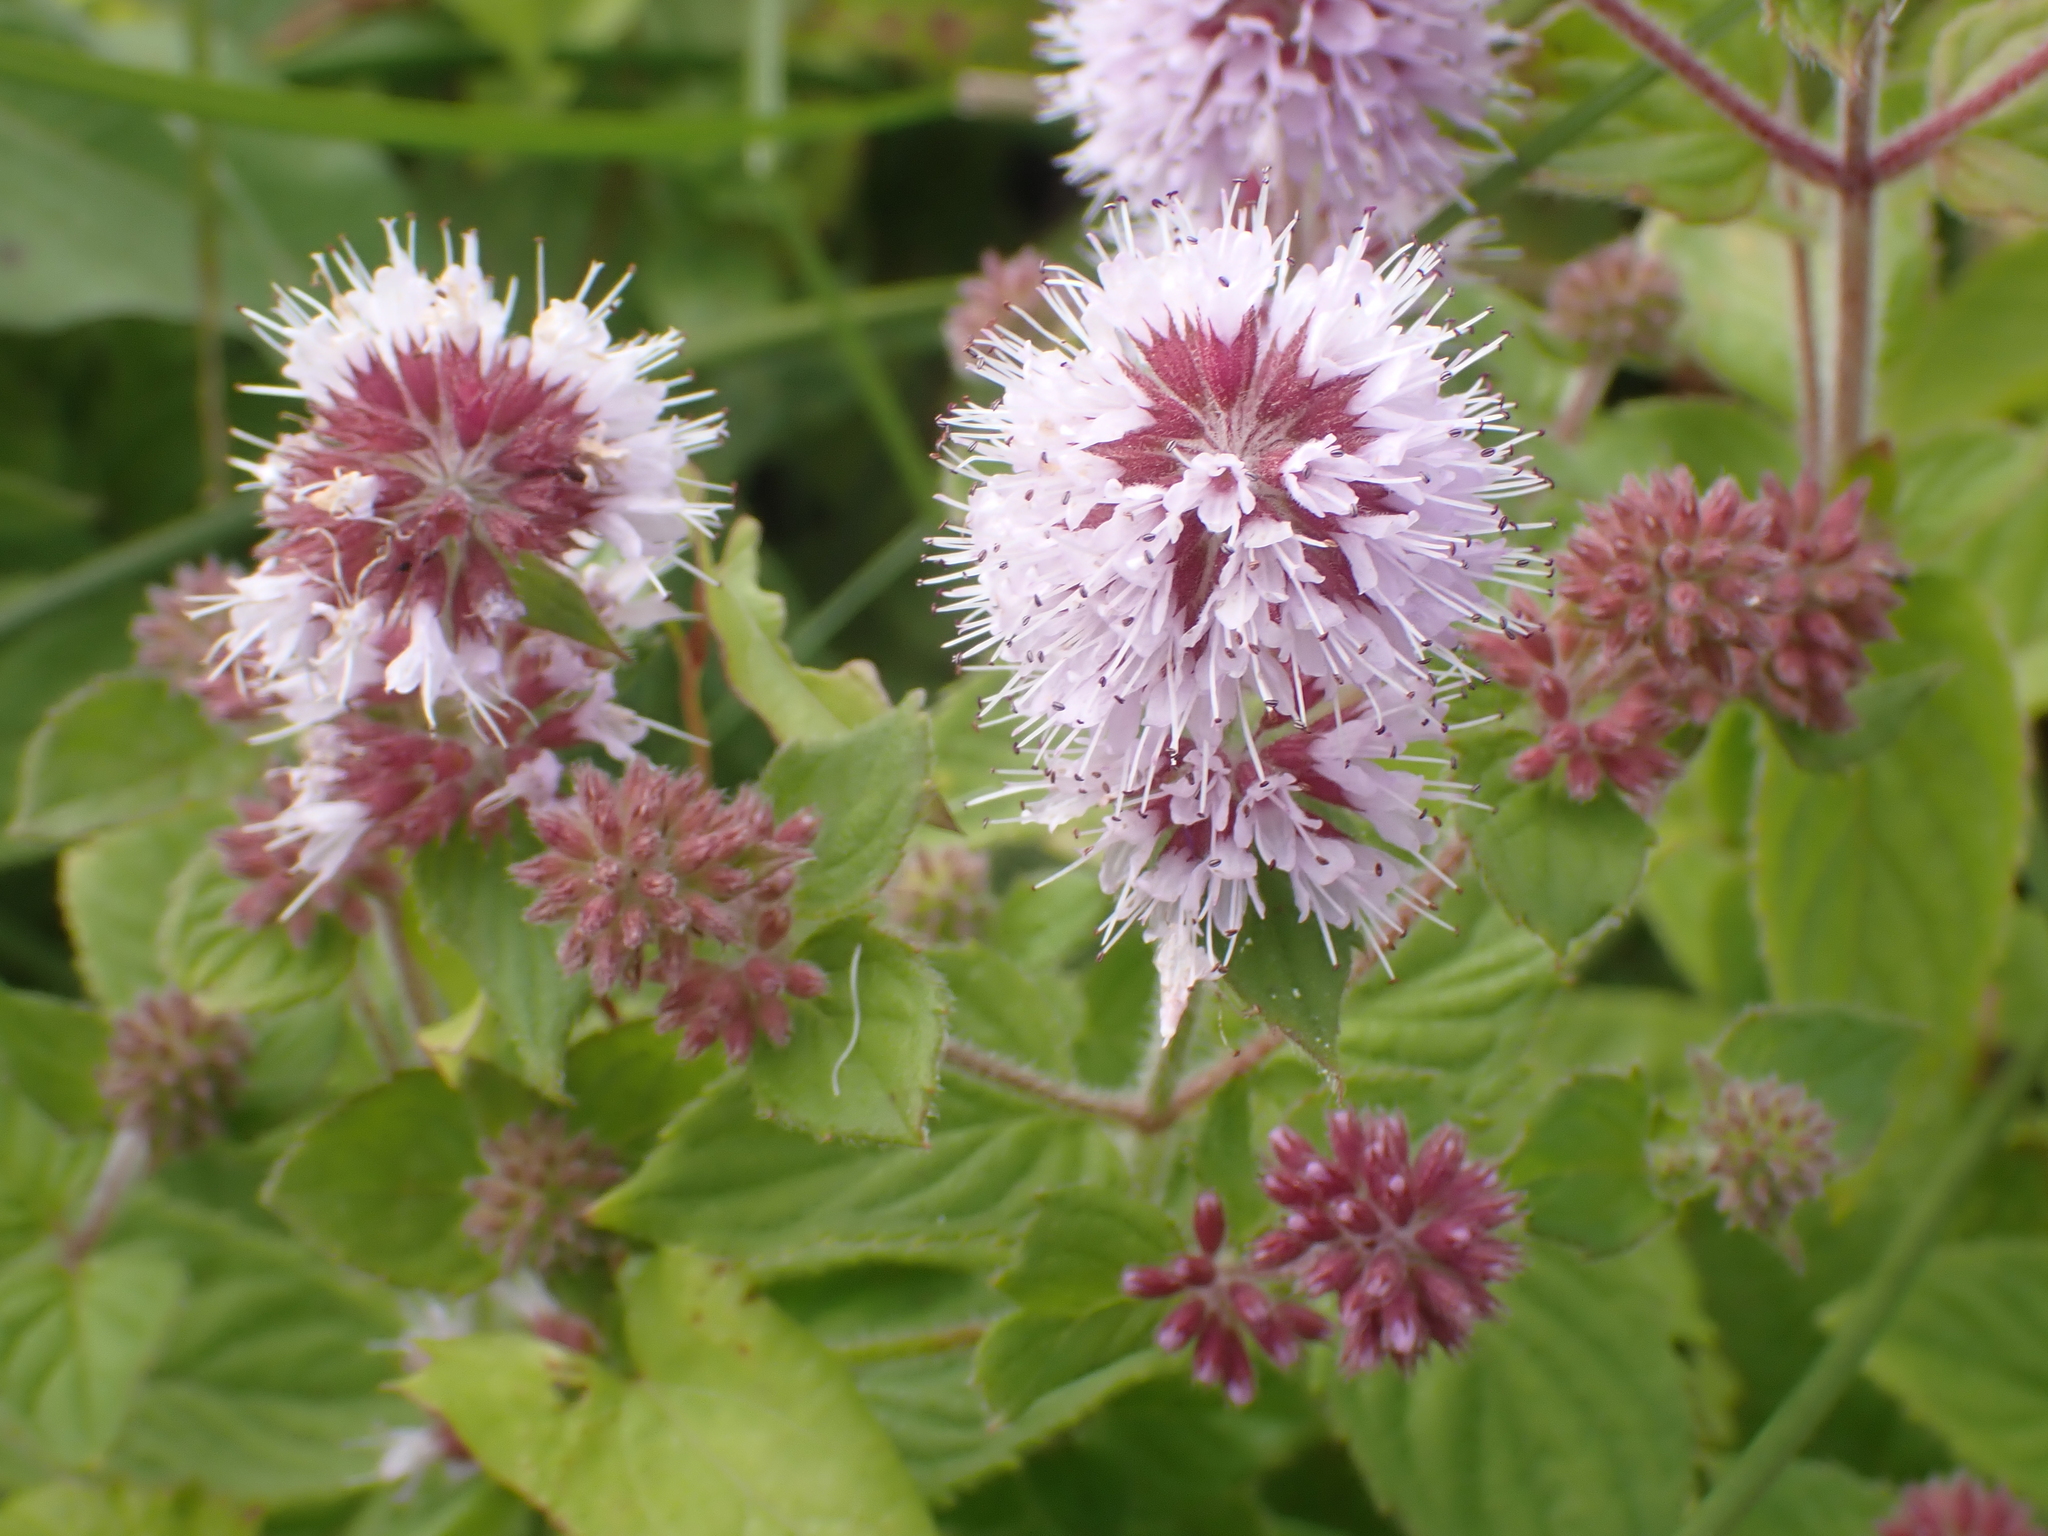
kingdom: Plantae
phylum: Tracheophyta
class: Magnoliopsida
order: Lamiales
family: Lamiaceae
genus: Mentha
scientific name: Mentha aquatica
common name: Water mint
